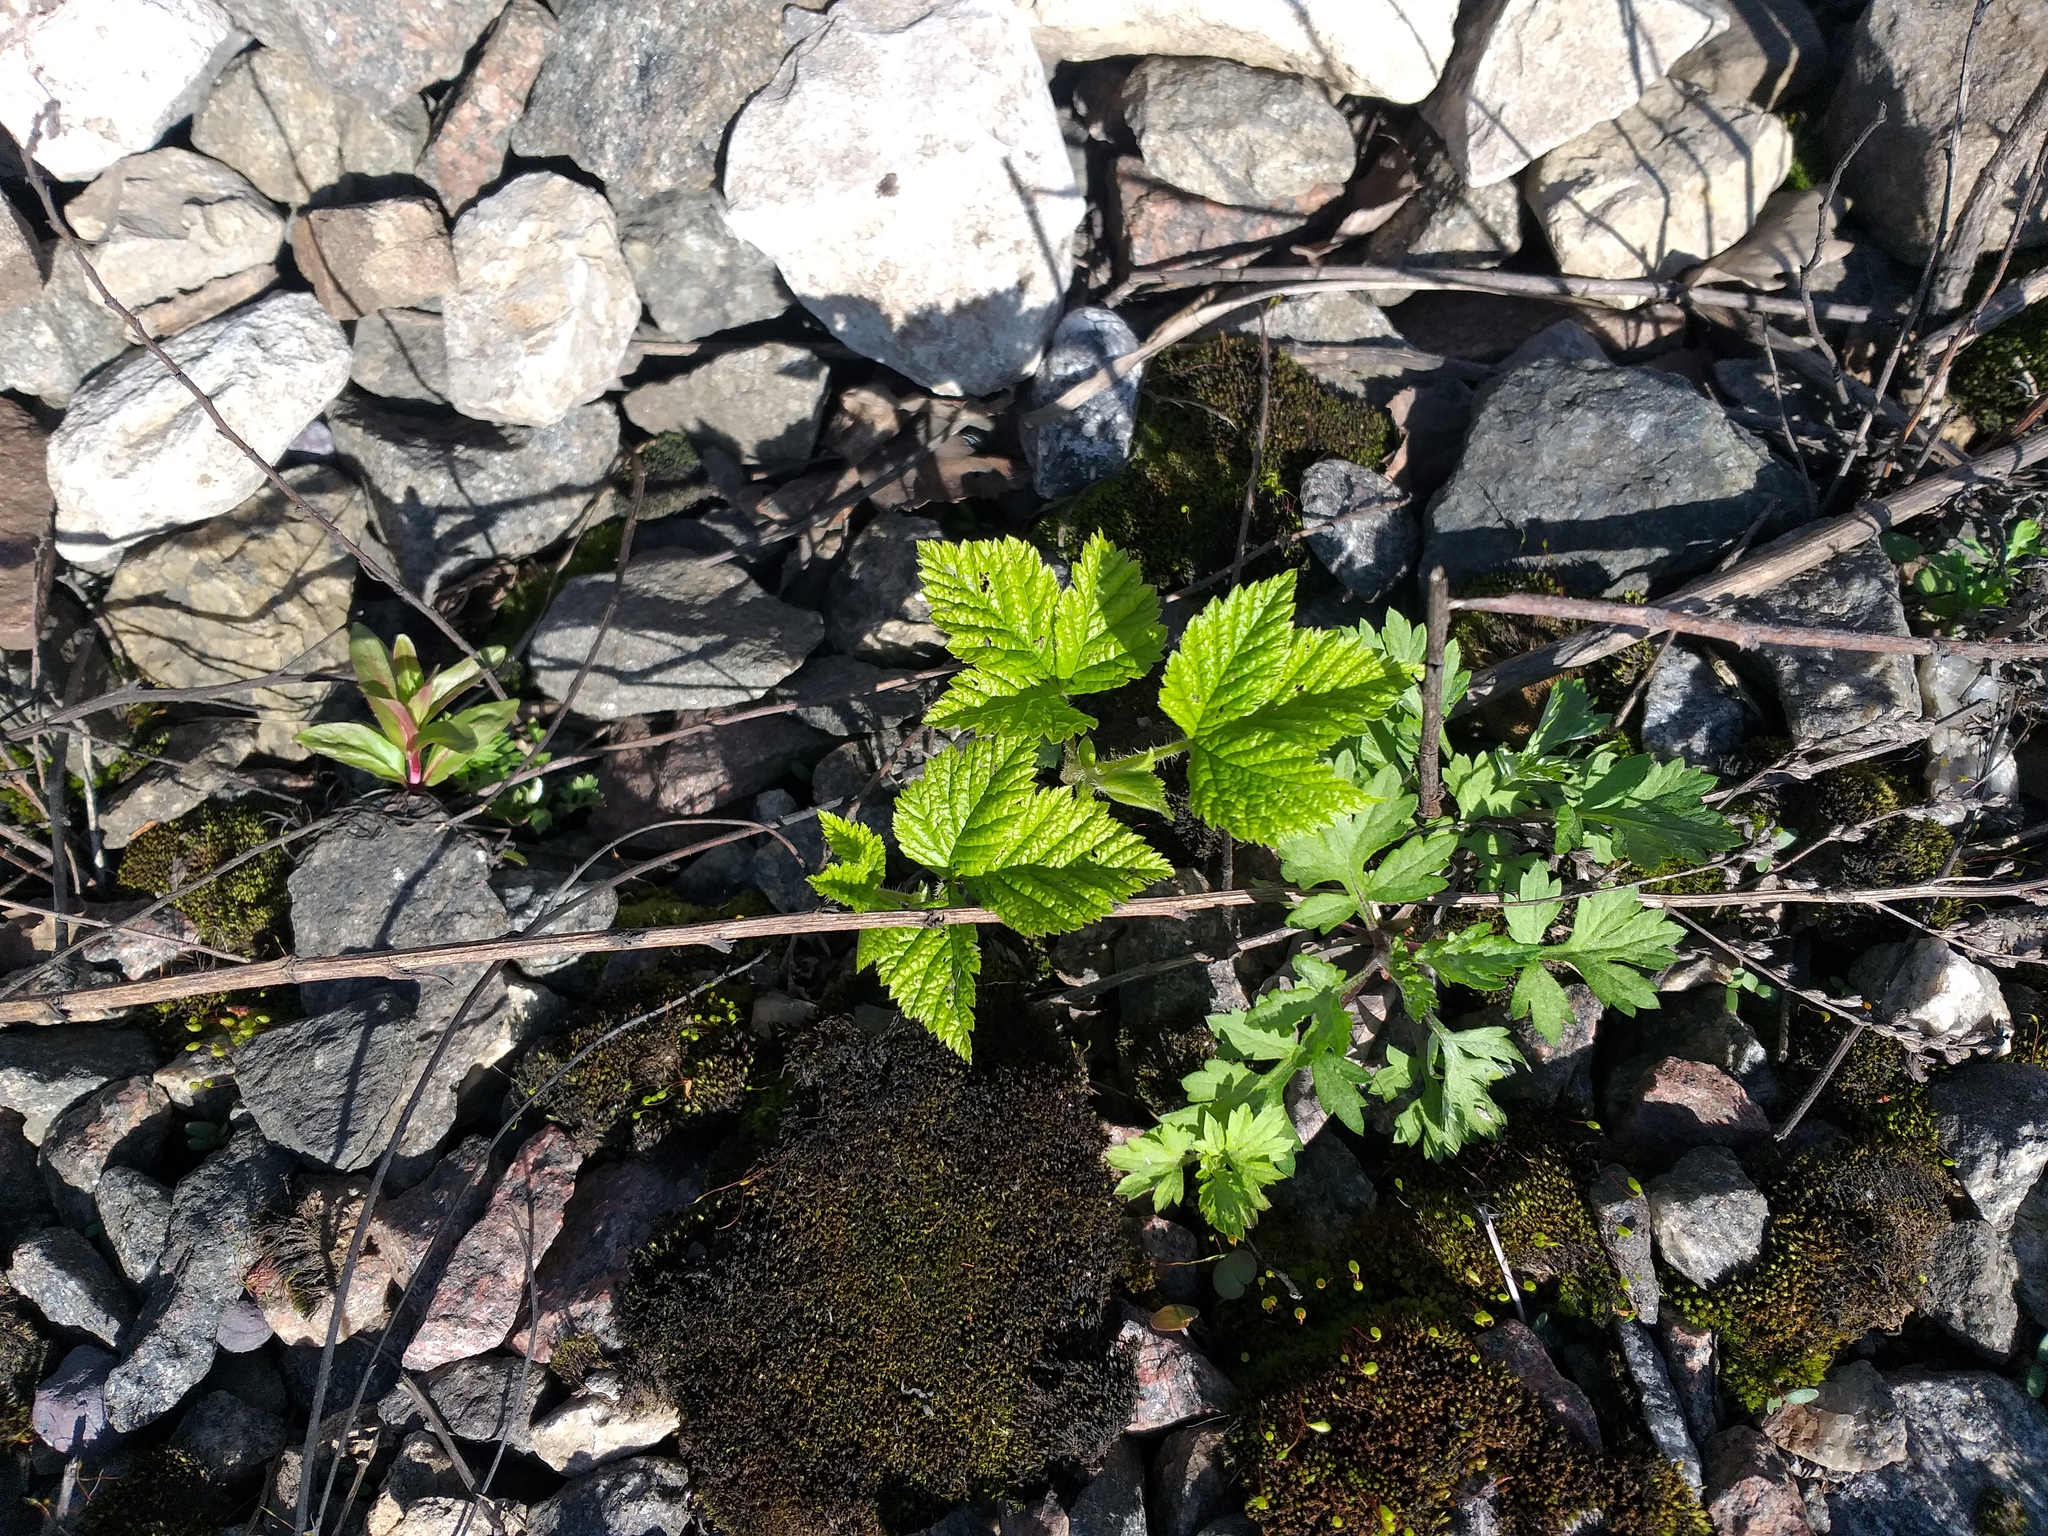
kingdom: Plantae
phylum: Tracheophyta
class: Magnoliopsida
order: Rosales
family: Rosaceae
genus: Rubus
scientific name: Rubus saxatilis
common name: Stone bramble
